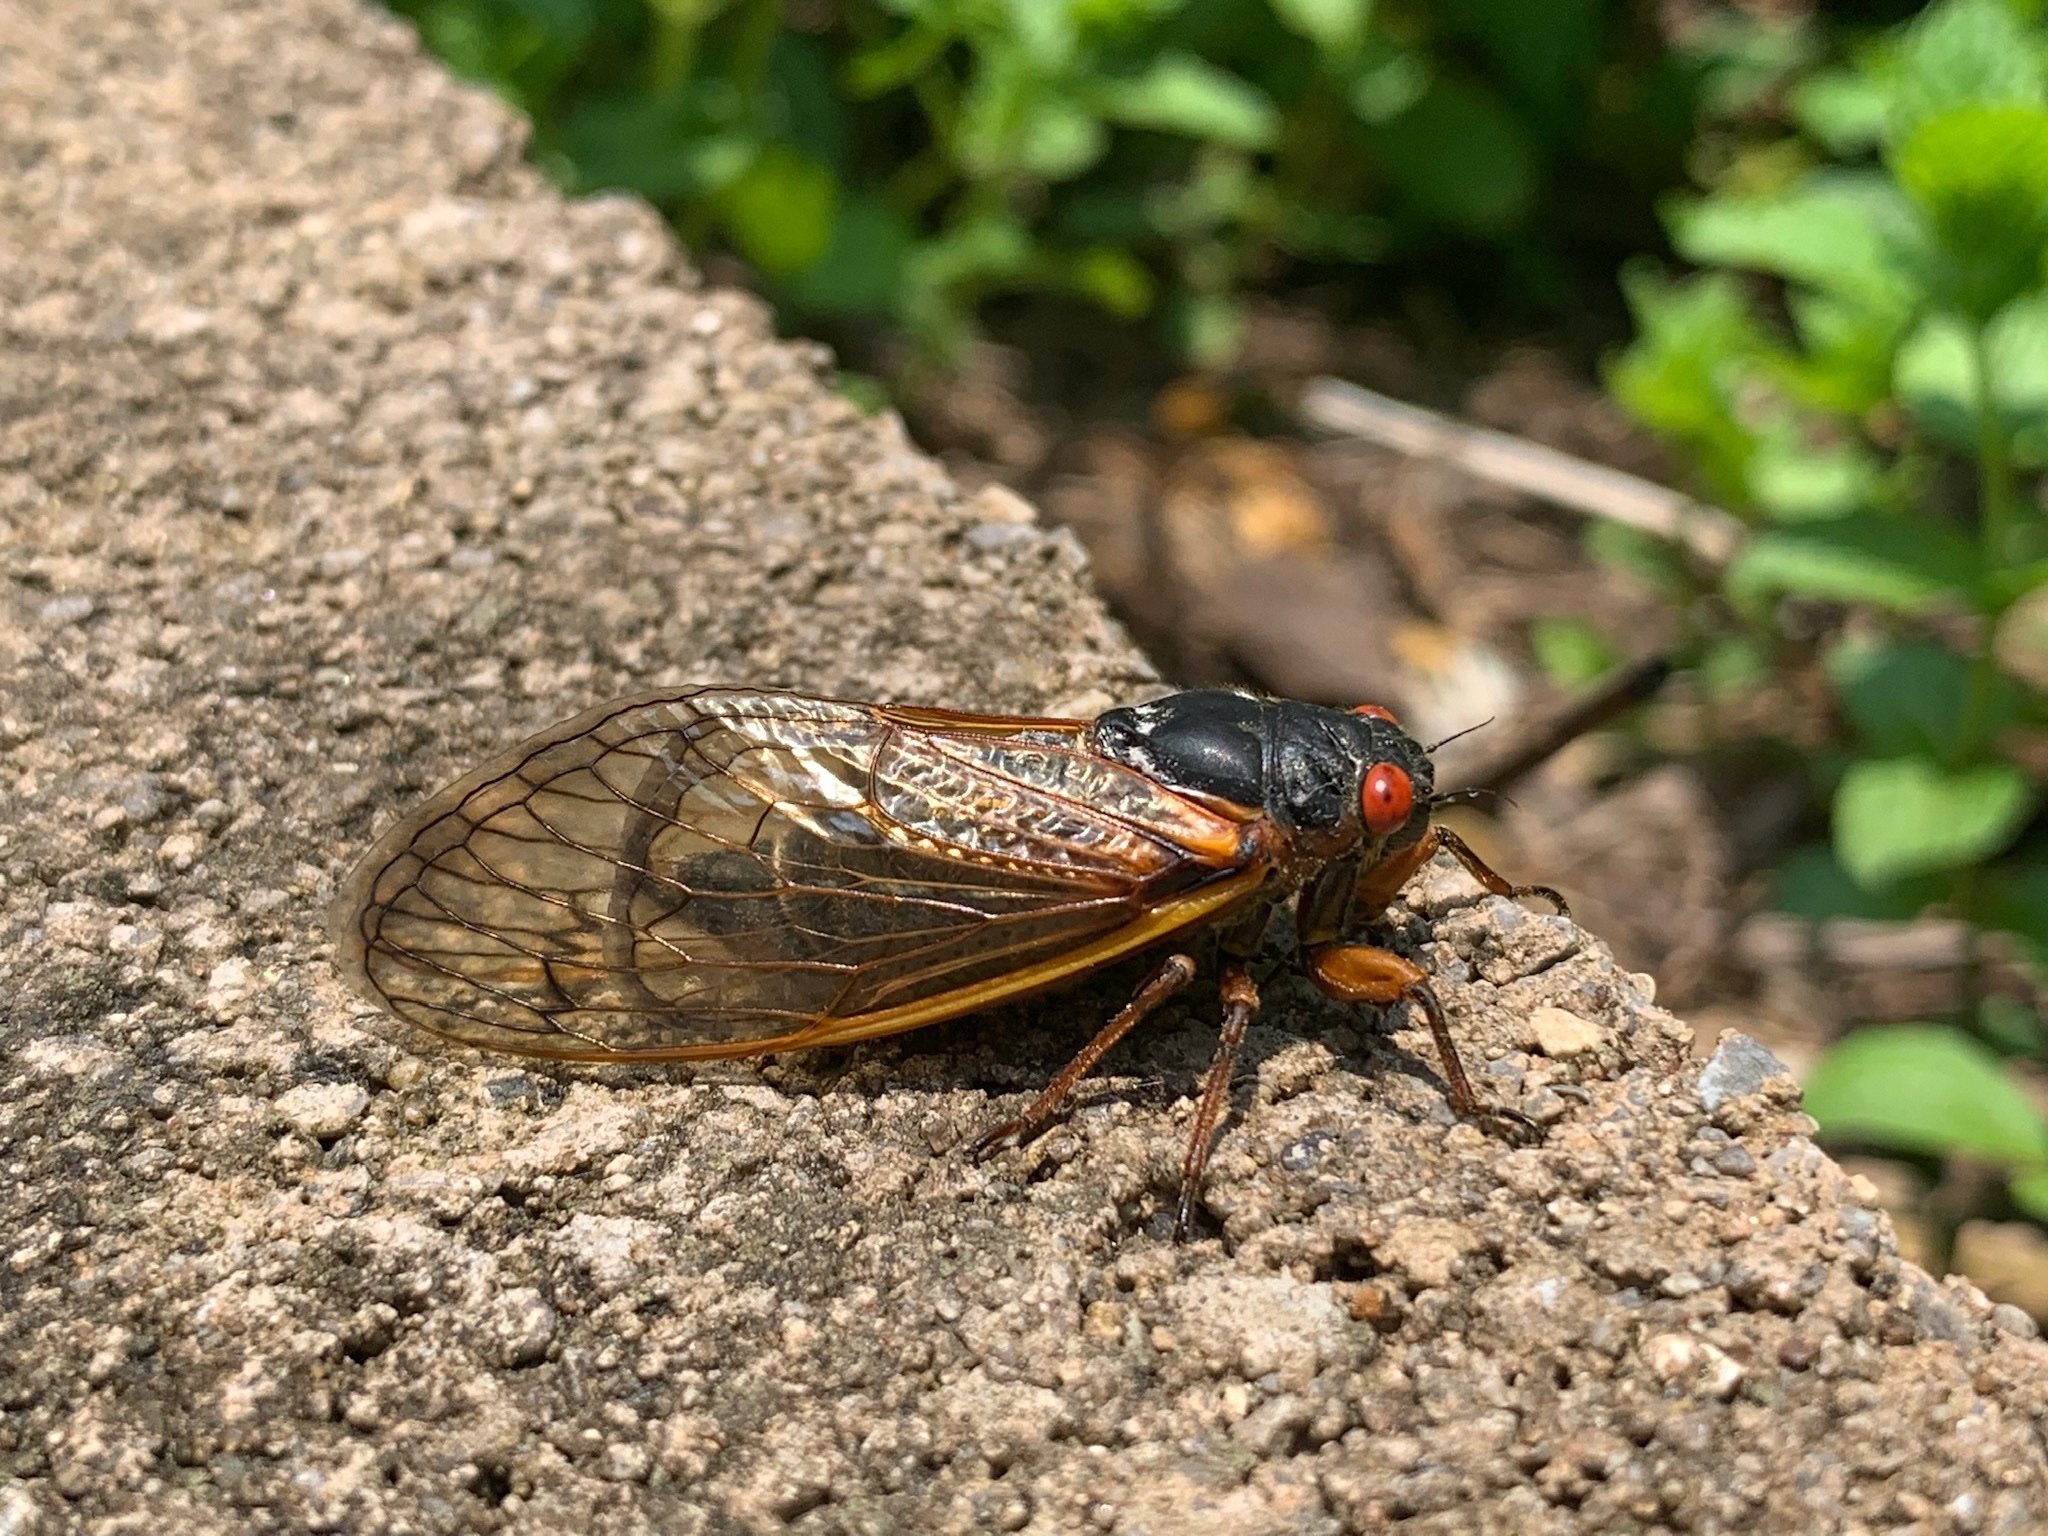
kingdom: Animalia
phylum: Arthropoda
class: Insecta
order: Hemiptera
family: Cicadidae
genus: Magicicada
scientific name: Magicicada septendecim
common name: Periodical cicada
